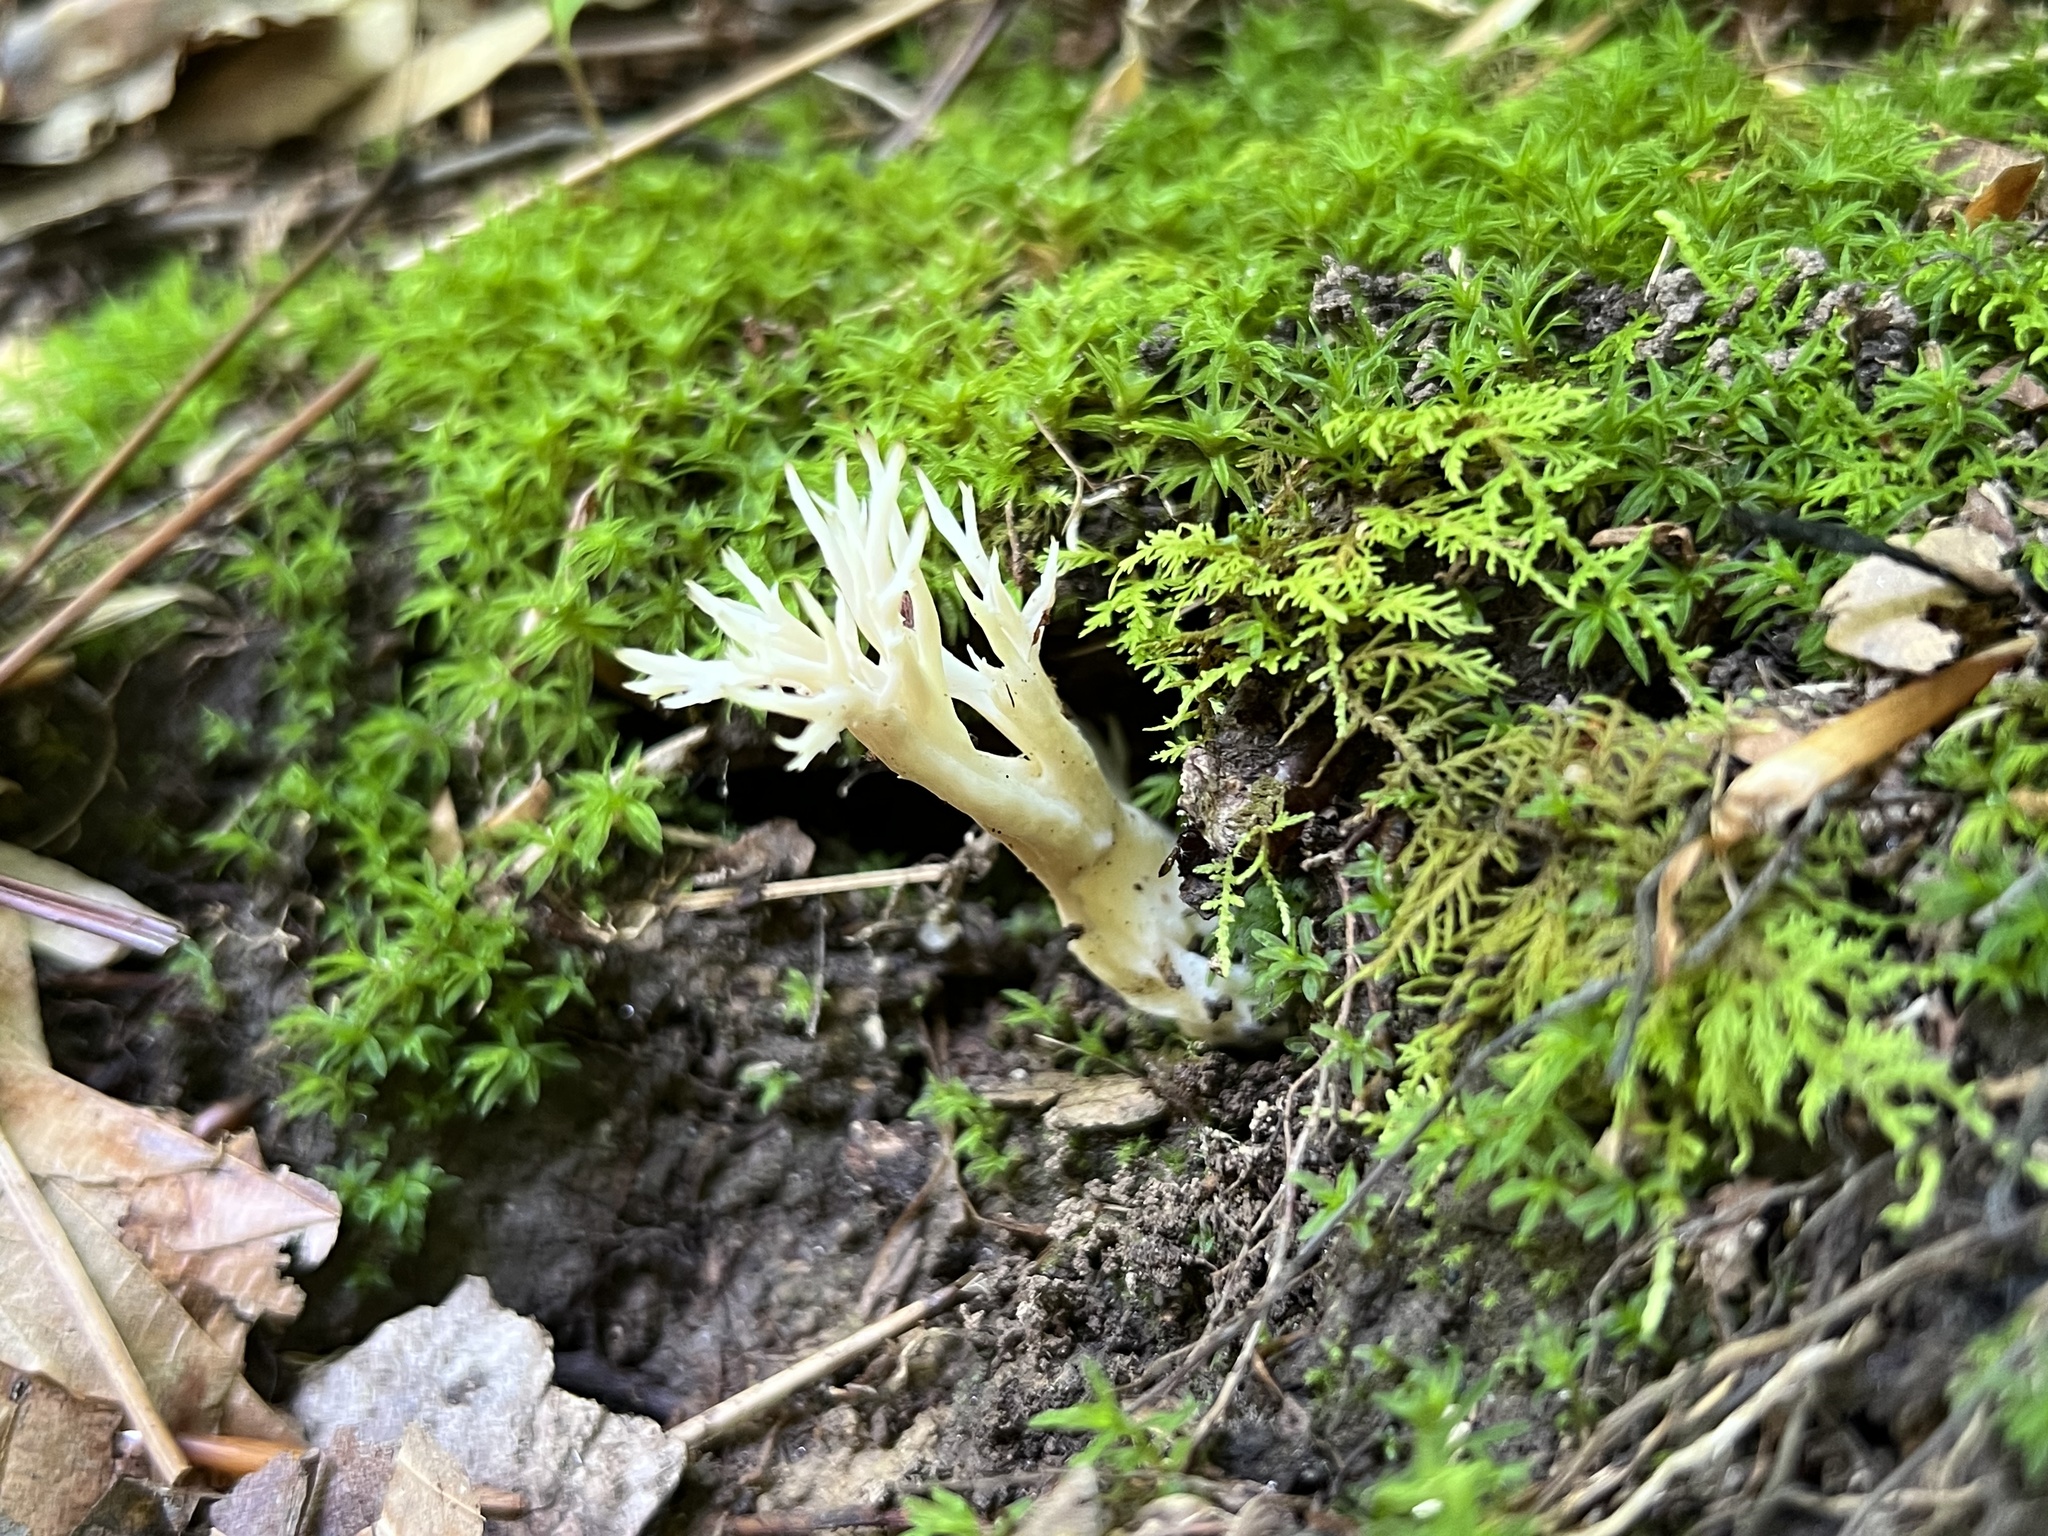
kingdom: Fungi
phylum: Basidiomycota
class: Agaricomycetes
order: Cantharellales
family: Hydnaceae
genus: Clavulina
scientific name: Clavulina coralloides
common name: Crested coral
